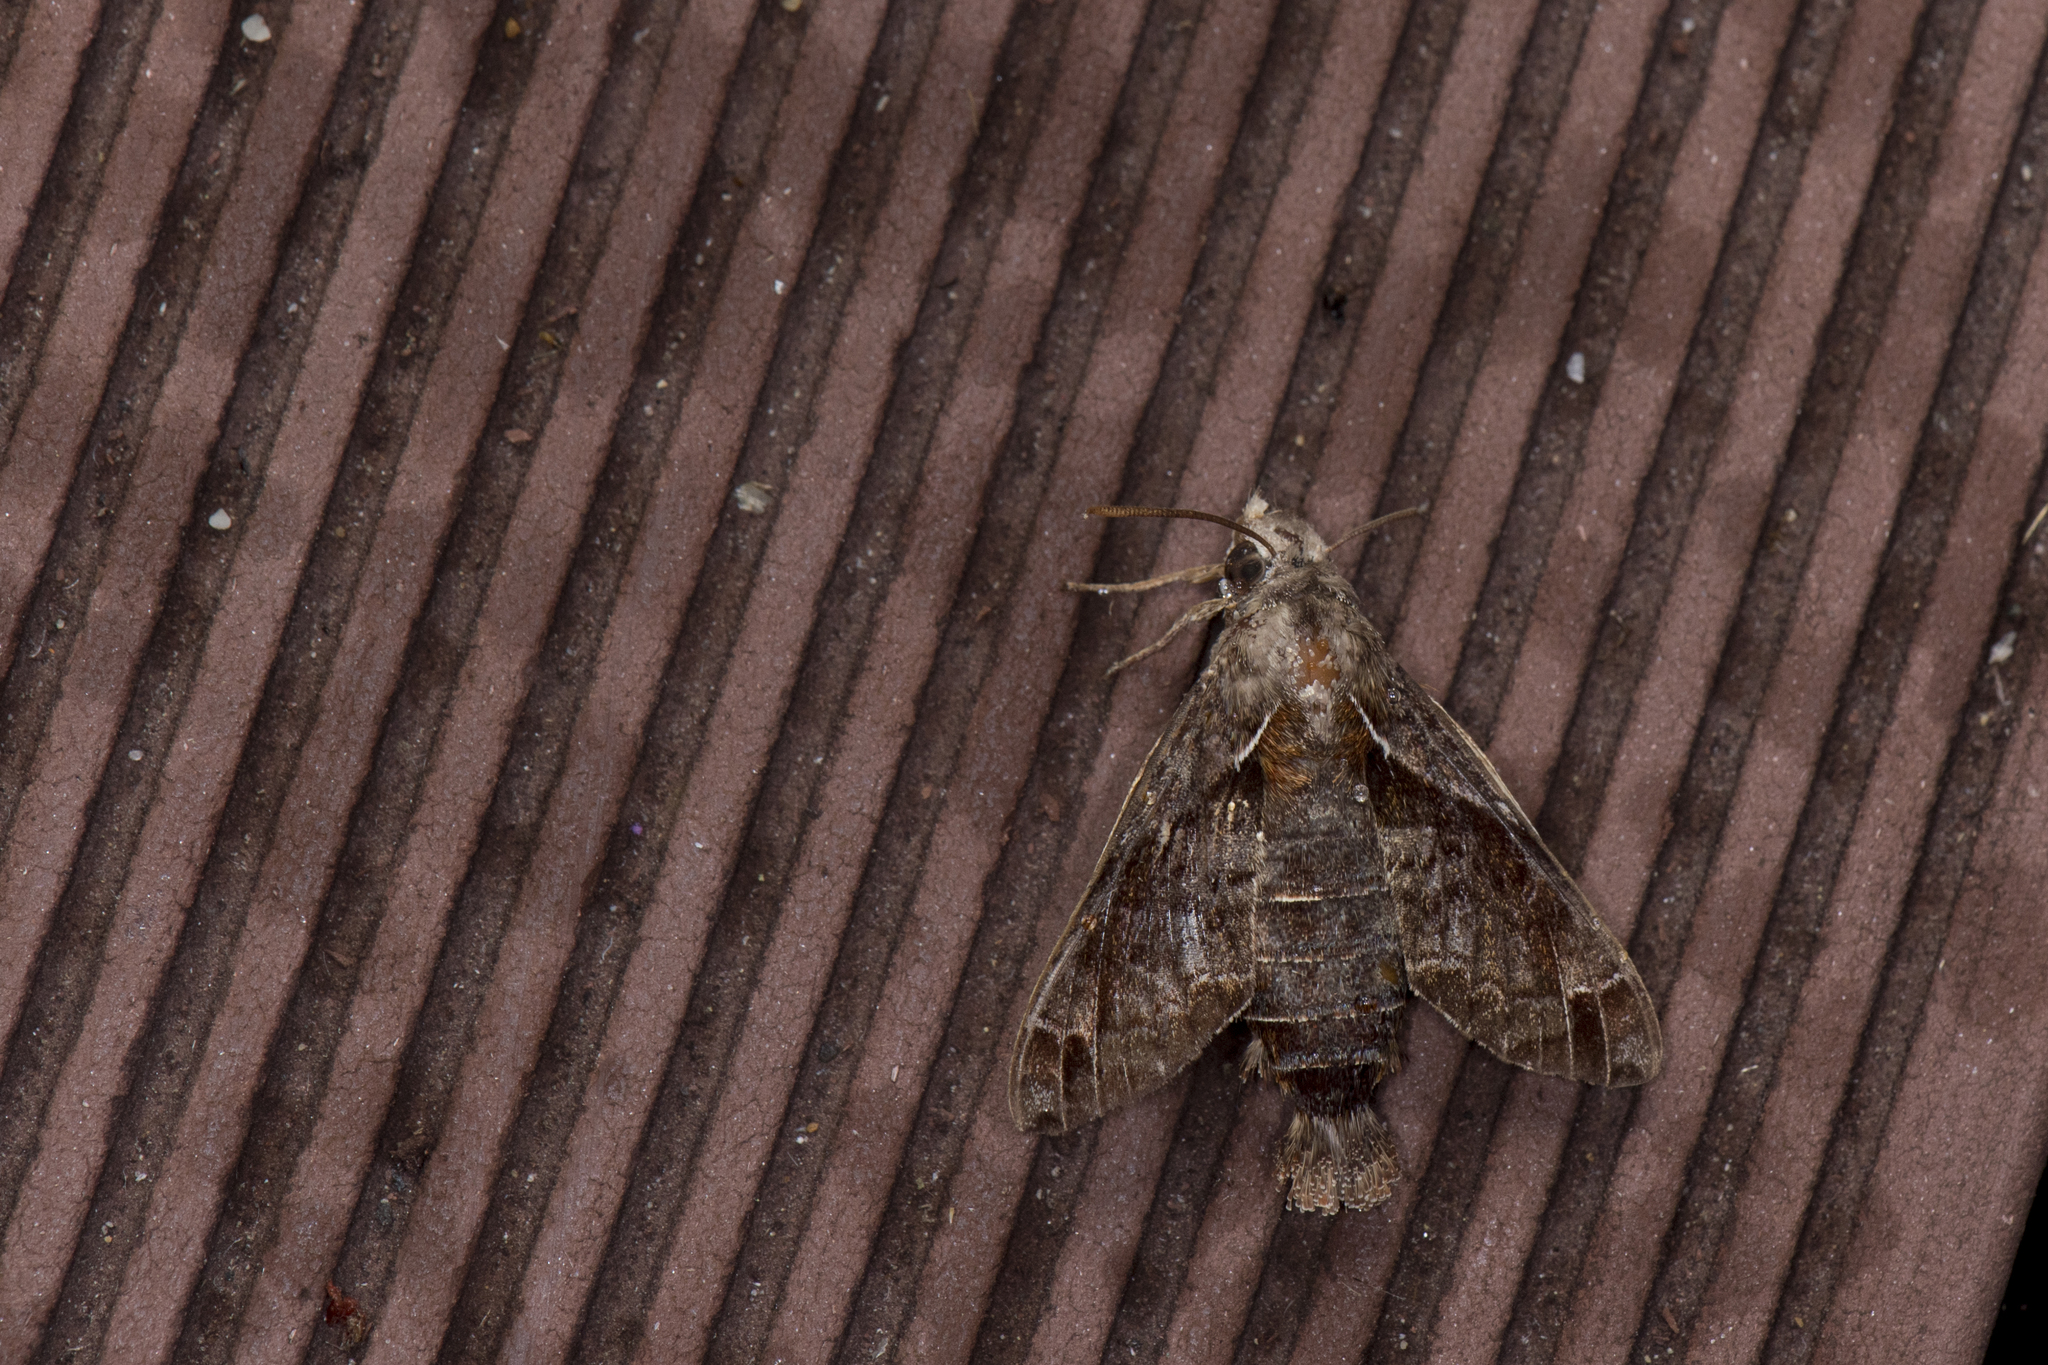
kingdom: Animalia
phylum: Arthropoda
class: Insecta
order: Lepidoptera
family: Sphingidae
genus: Macroglossum
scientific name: Macroglossum fritzei
